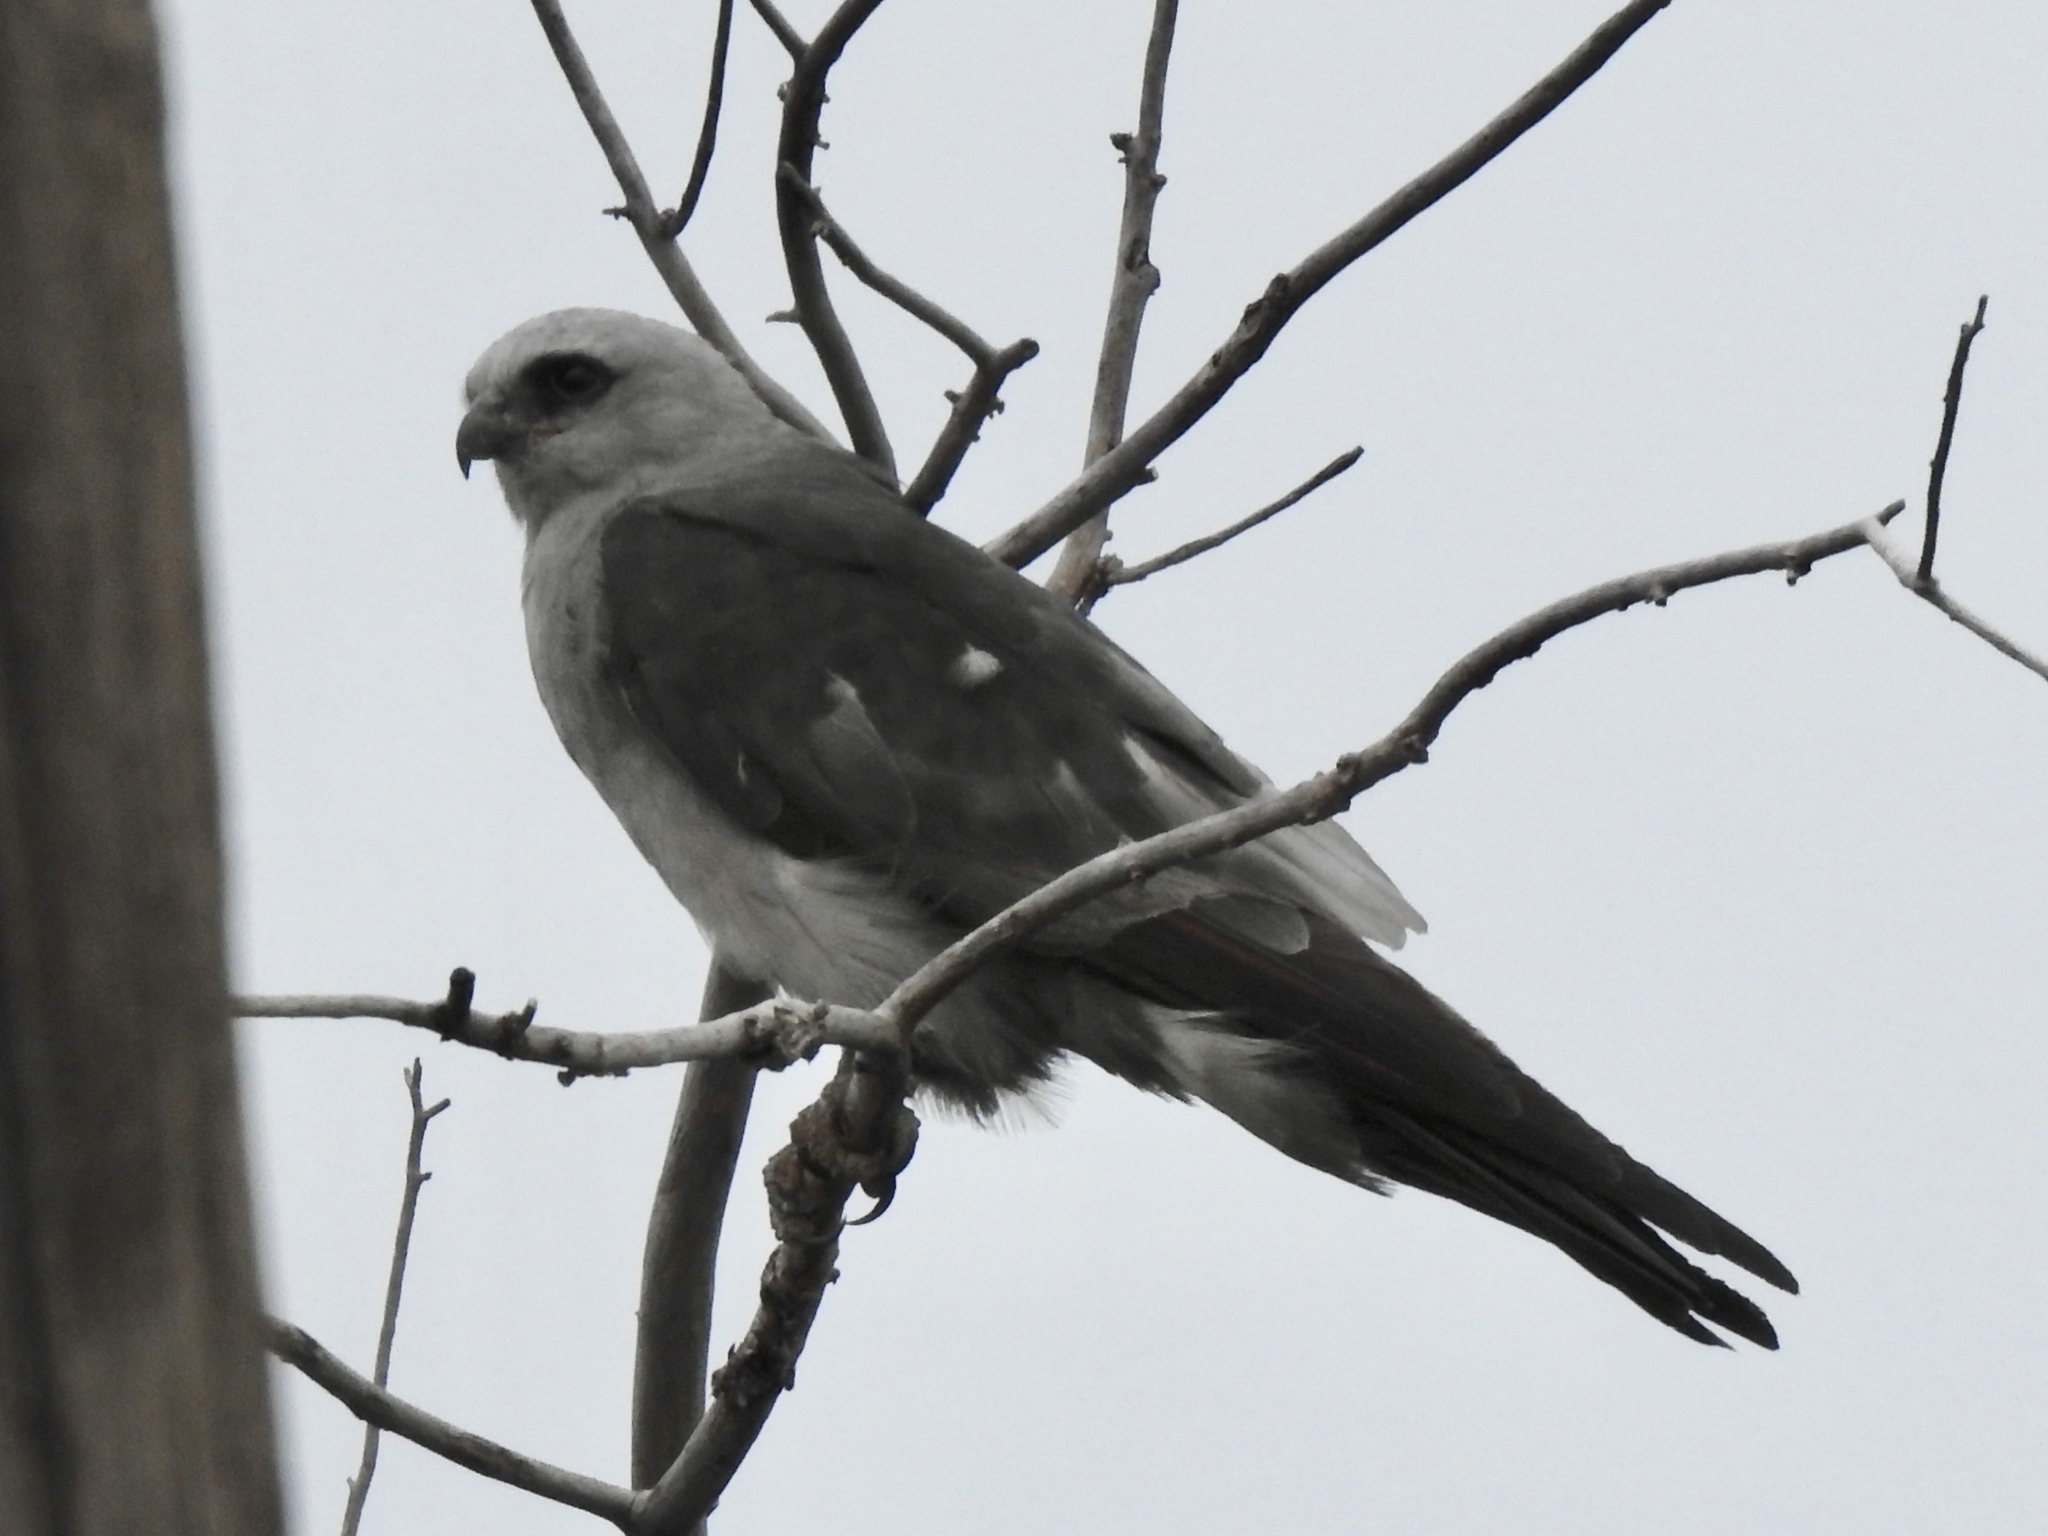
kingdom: Animalia
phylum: Chordata
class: Aves
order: Accipitriformes
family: Accipitridae
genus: Ictinia
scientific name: Ictinia mississippiensis
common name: Mississippi kite
